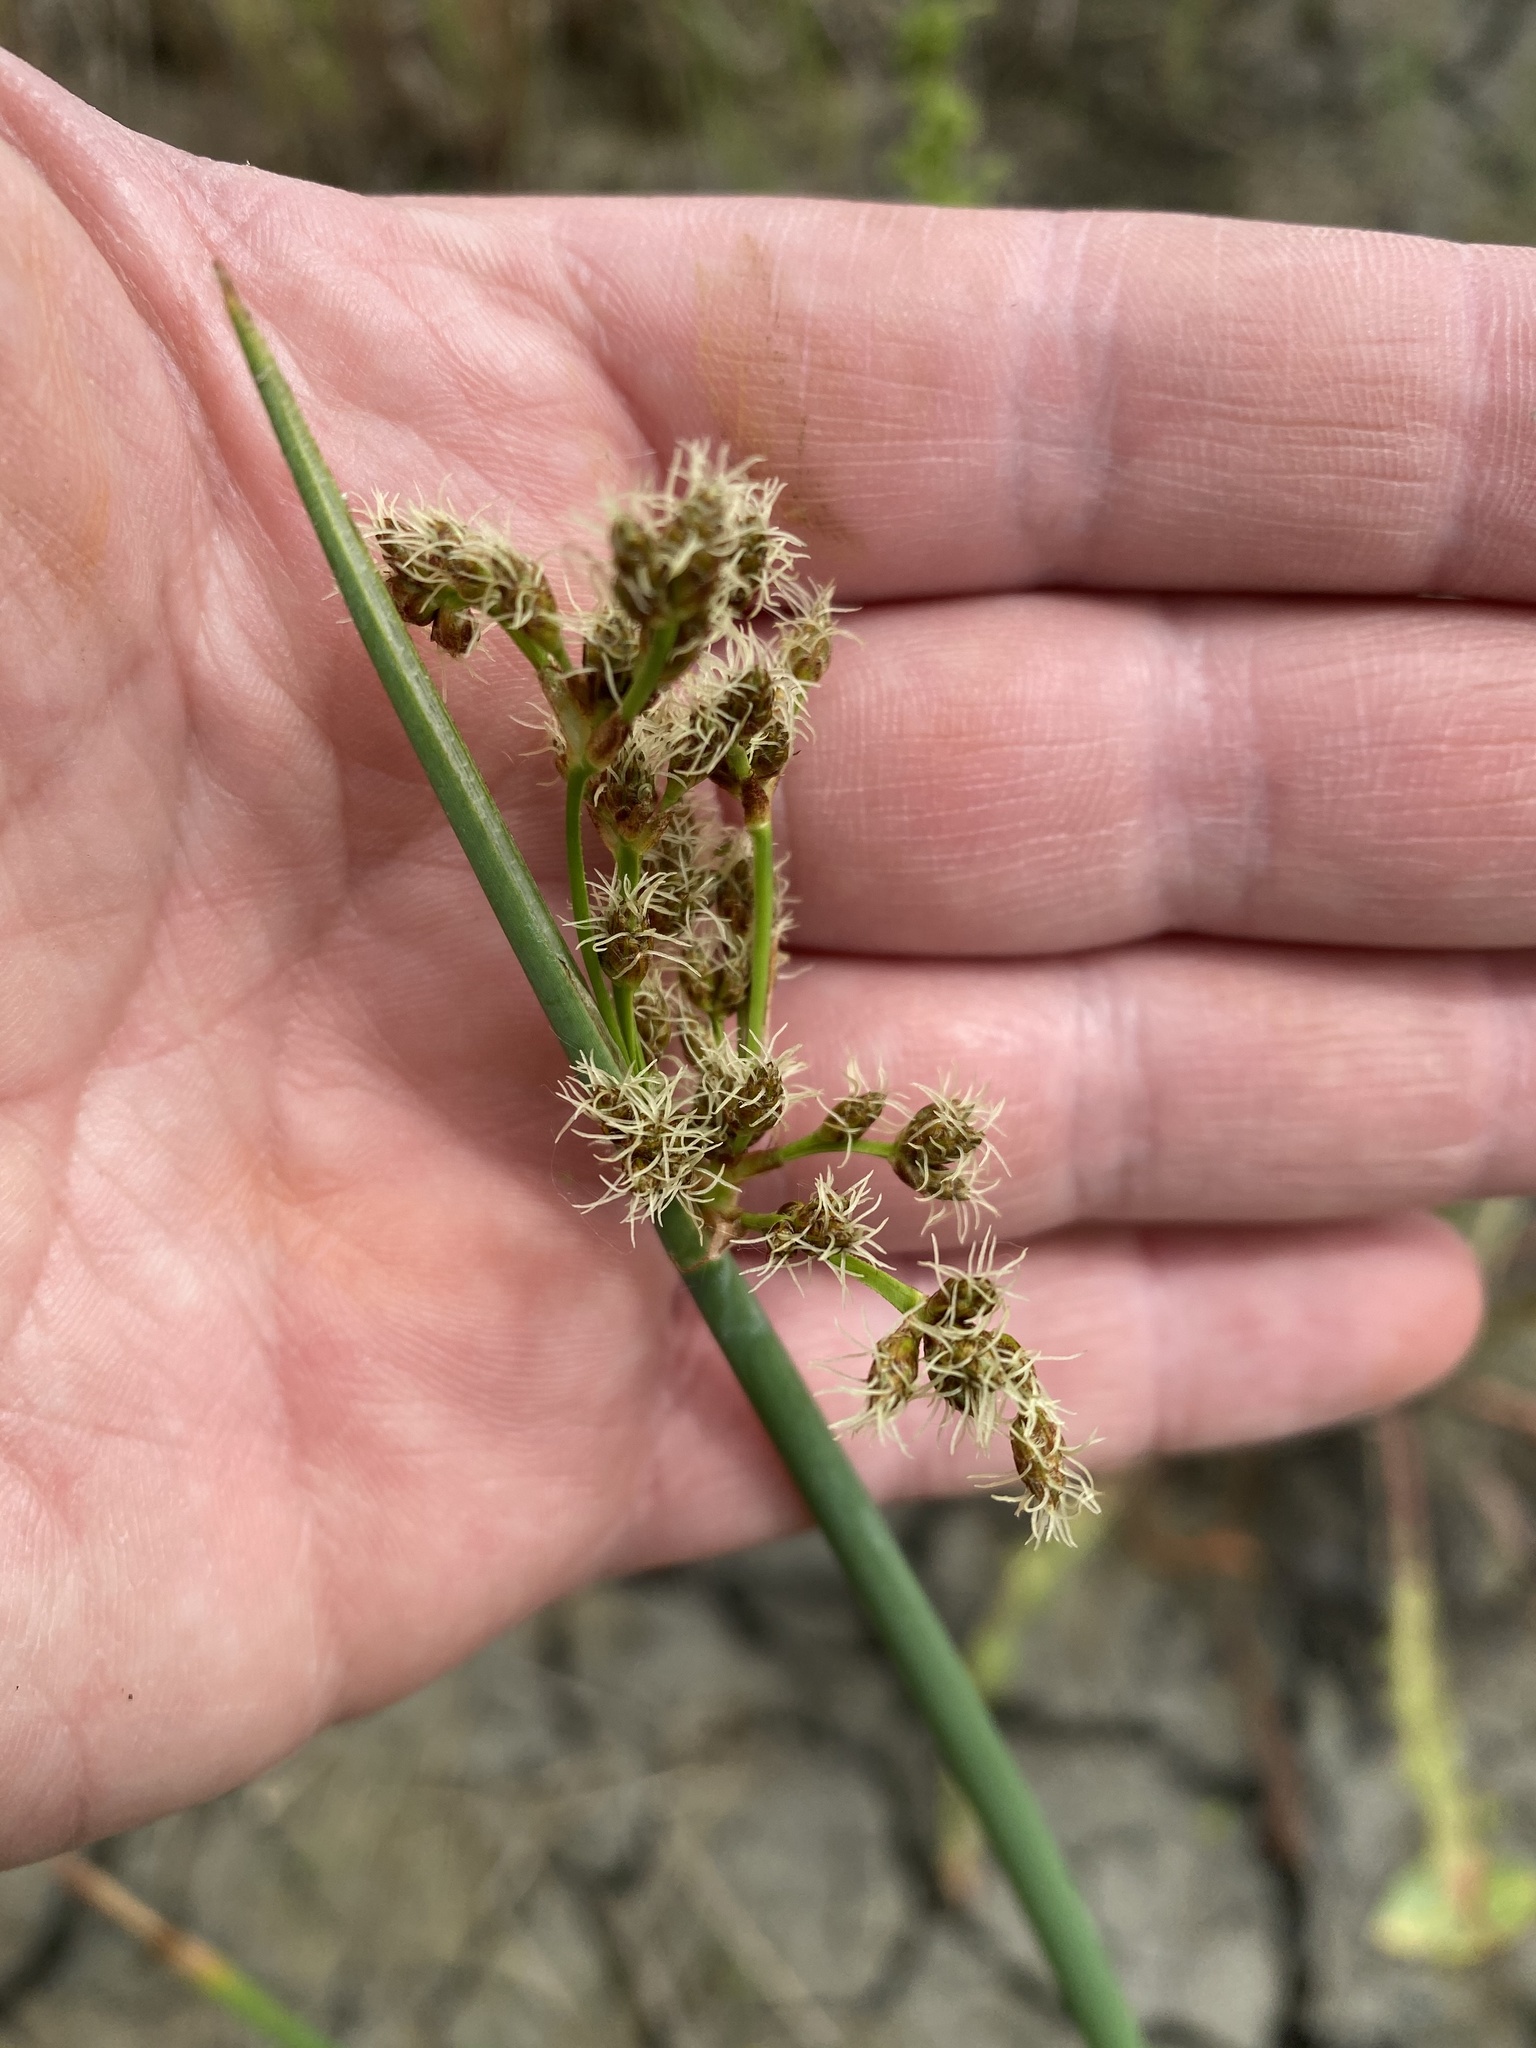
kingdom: Plantae
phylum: Tracheophyta
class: Liliopsida
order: Poales
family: Cyperaceae
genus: Schoenoplectus
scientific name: Schoenoplectus tabernaemontani
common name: Grey club-rush
